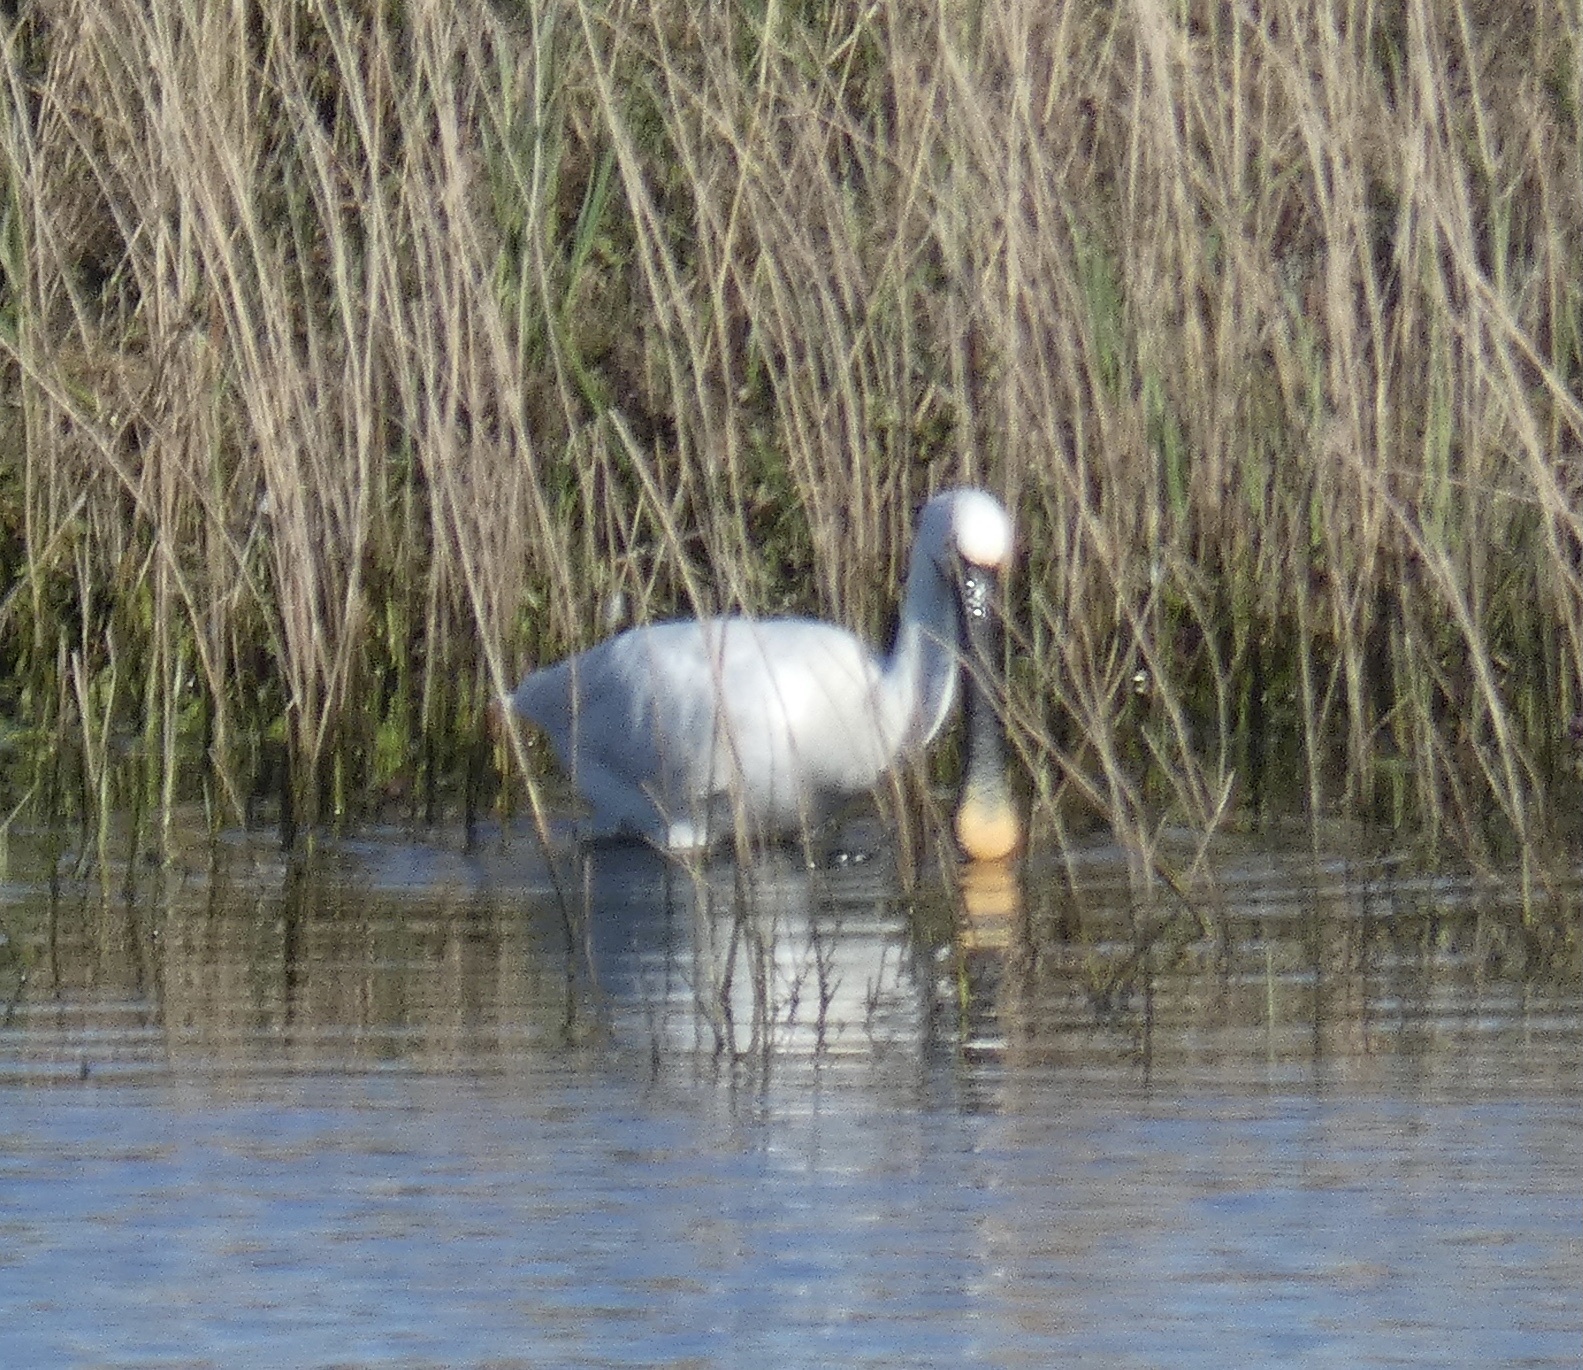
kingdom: Animalia
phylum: Chordata
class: Aves
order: Pelecaniformes
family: Threskiornithidae
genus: Platalea
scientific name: Platalea leucorodia
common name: Eurasian spoonbill
